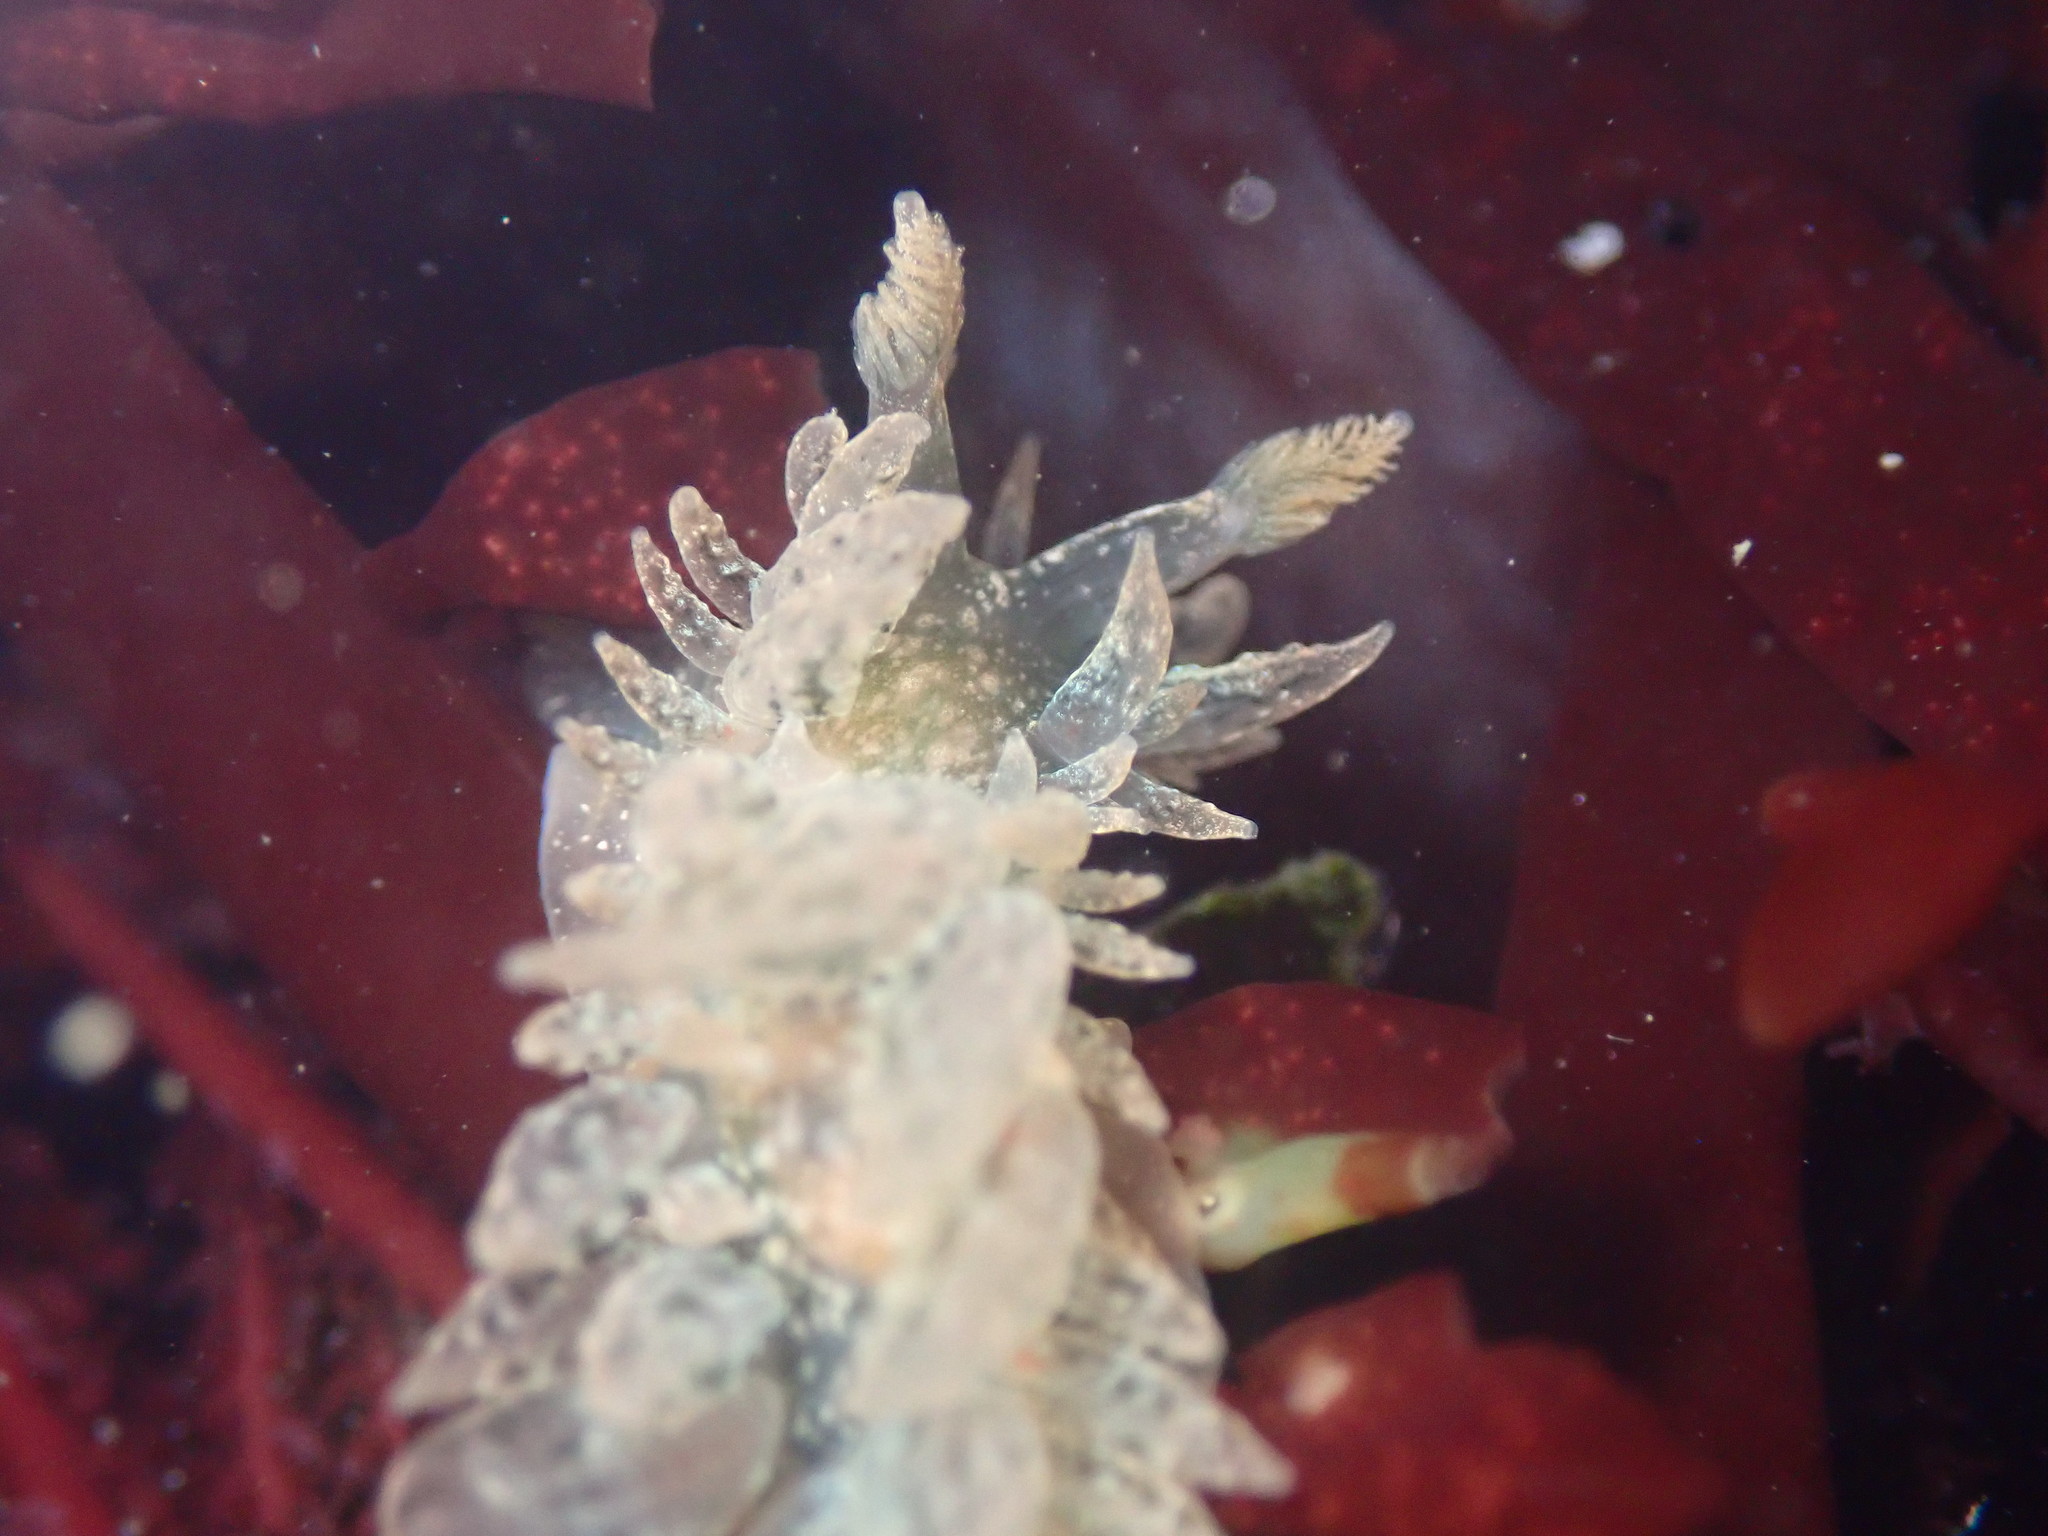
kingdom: Animalia
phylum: Mollusca
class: Gastropoda
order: Nudibranchia
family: Dironidae
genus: Dirona
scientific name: Dirona picta
